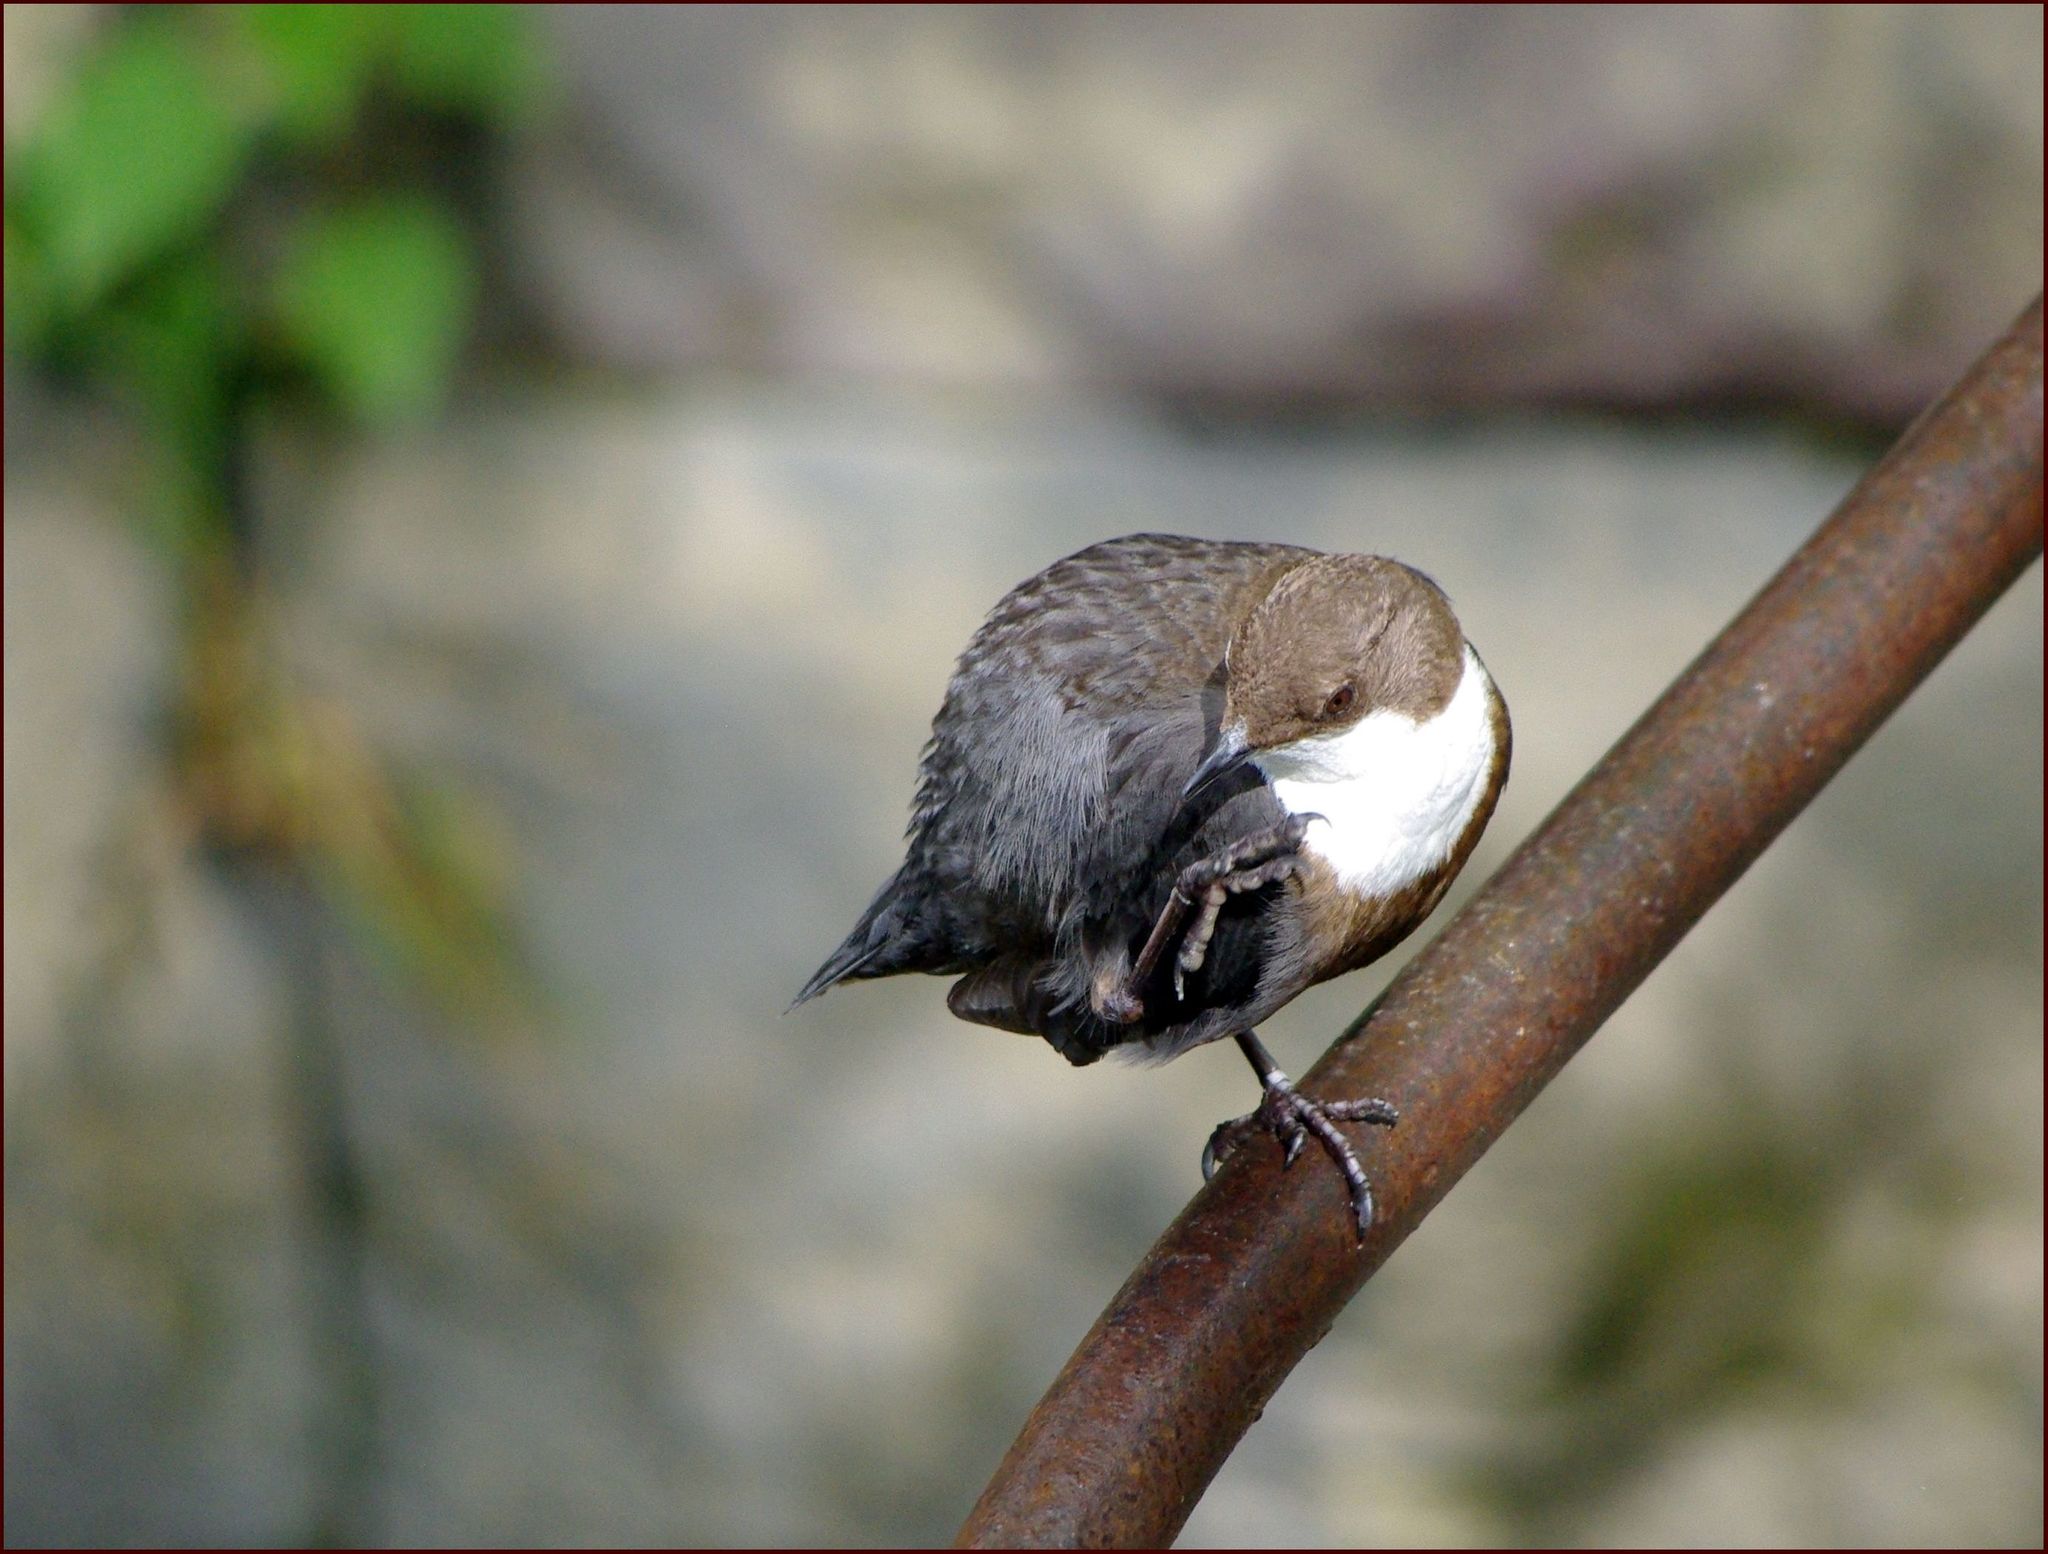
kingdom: Animalia
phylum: Chordata
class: Aves
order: Passeriformes
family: Cinclidae
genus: Cinclus
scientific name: Cinclus cinclus
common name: White-throated dipper
